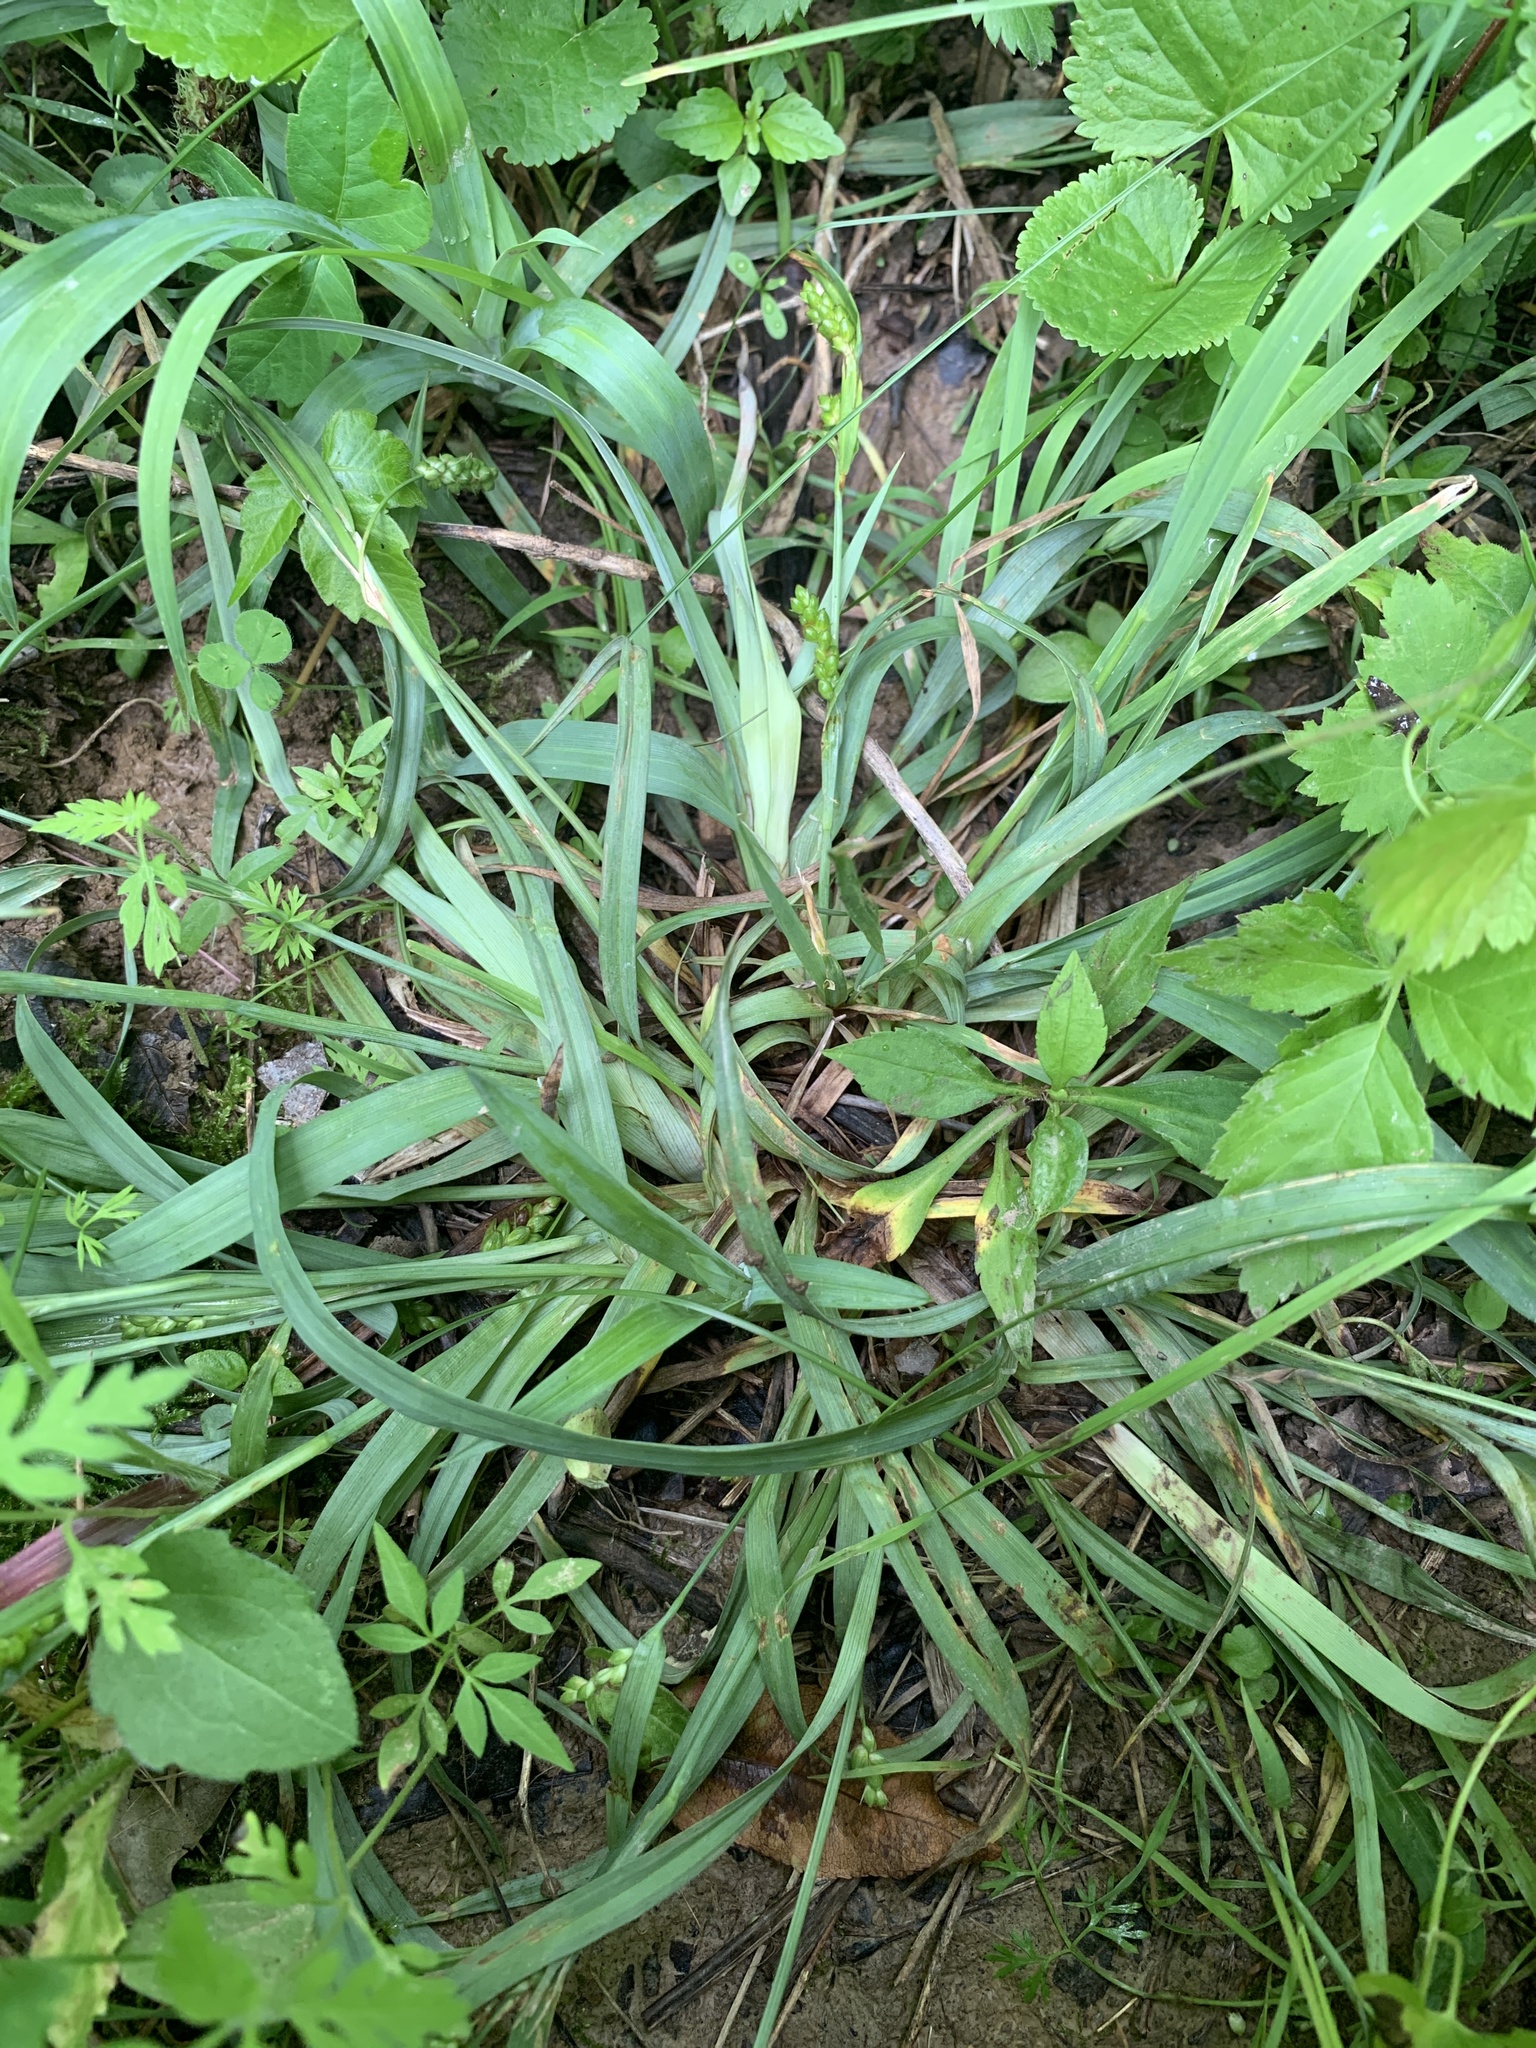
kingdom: Plantae
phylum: Tracheophyta
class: Liliopsida
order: Poales
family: Cyperaceae
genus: Carex
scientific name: Carex glaucodea
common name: Blue sedge
